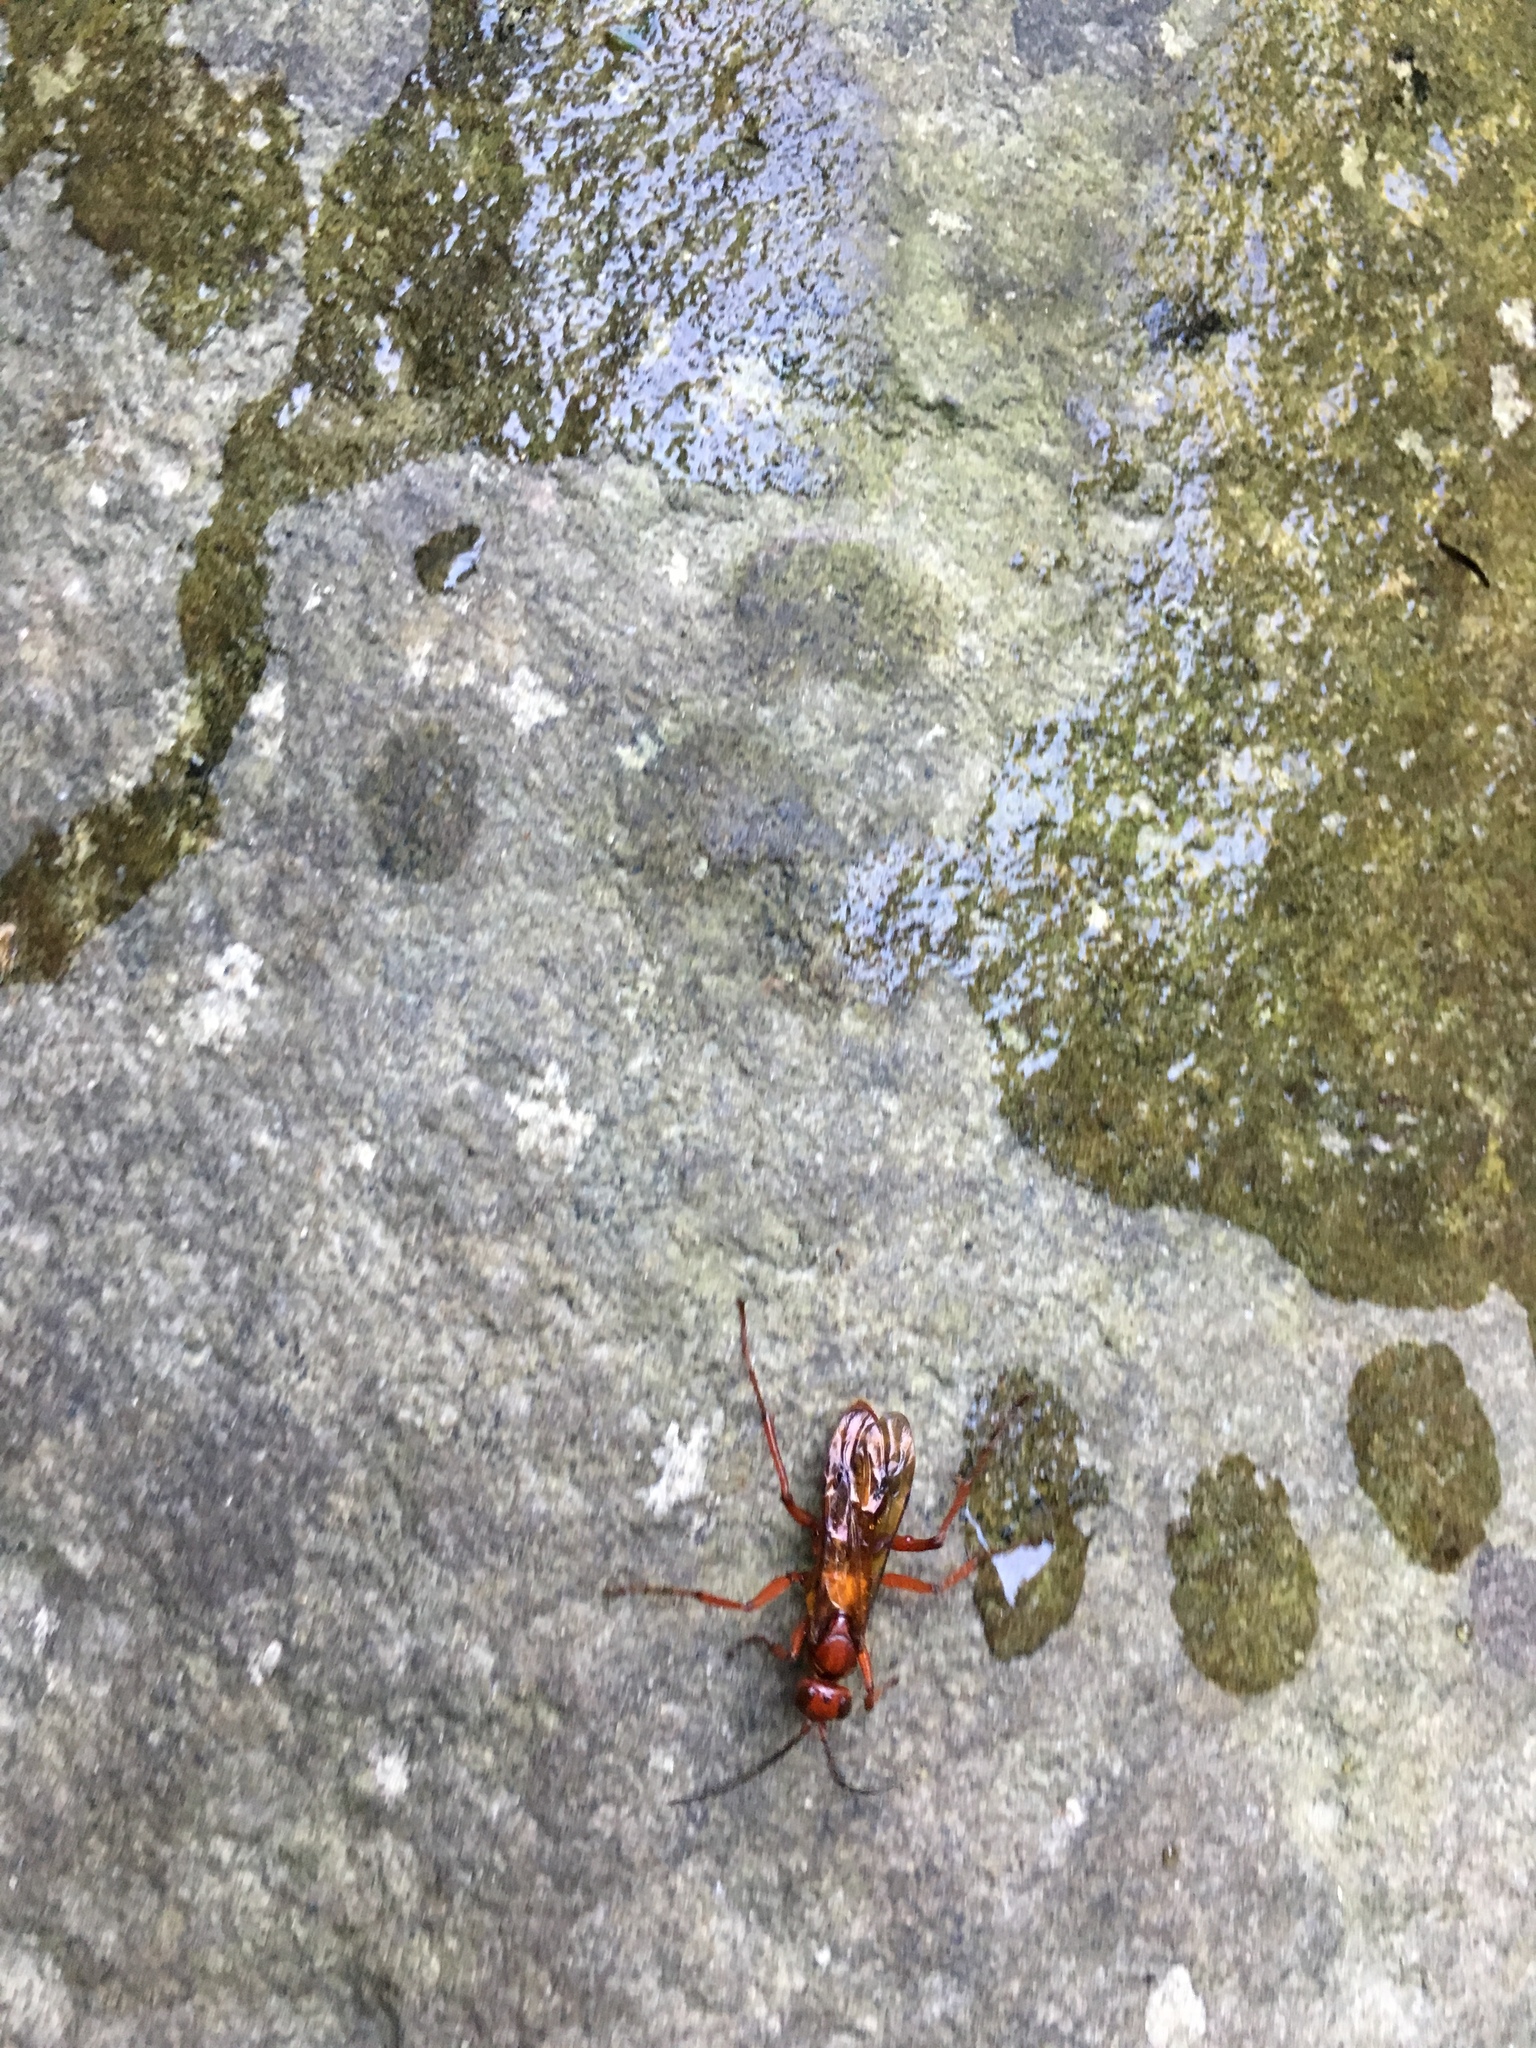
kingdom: Animalia
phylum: Arthropoda
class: Insecta
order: Hymenoptera
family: Pompilidae
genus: Sphictostethus
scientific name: Sphictostethus nitidus
